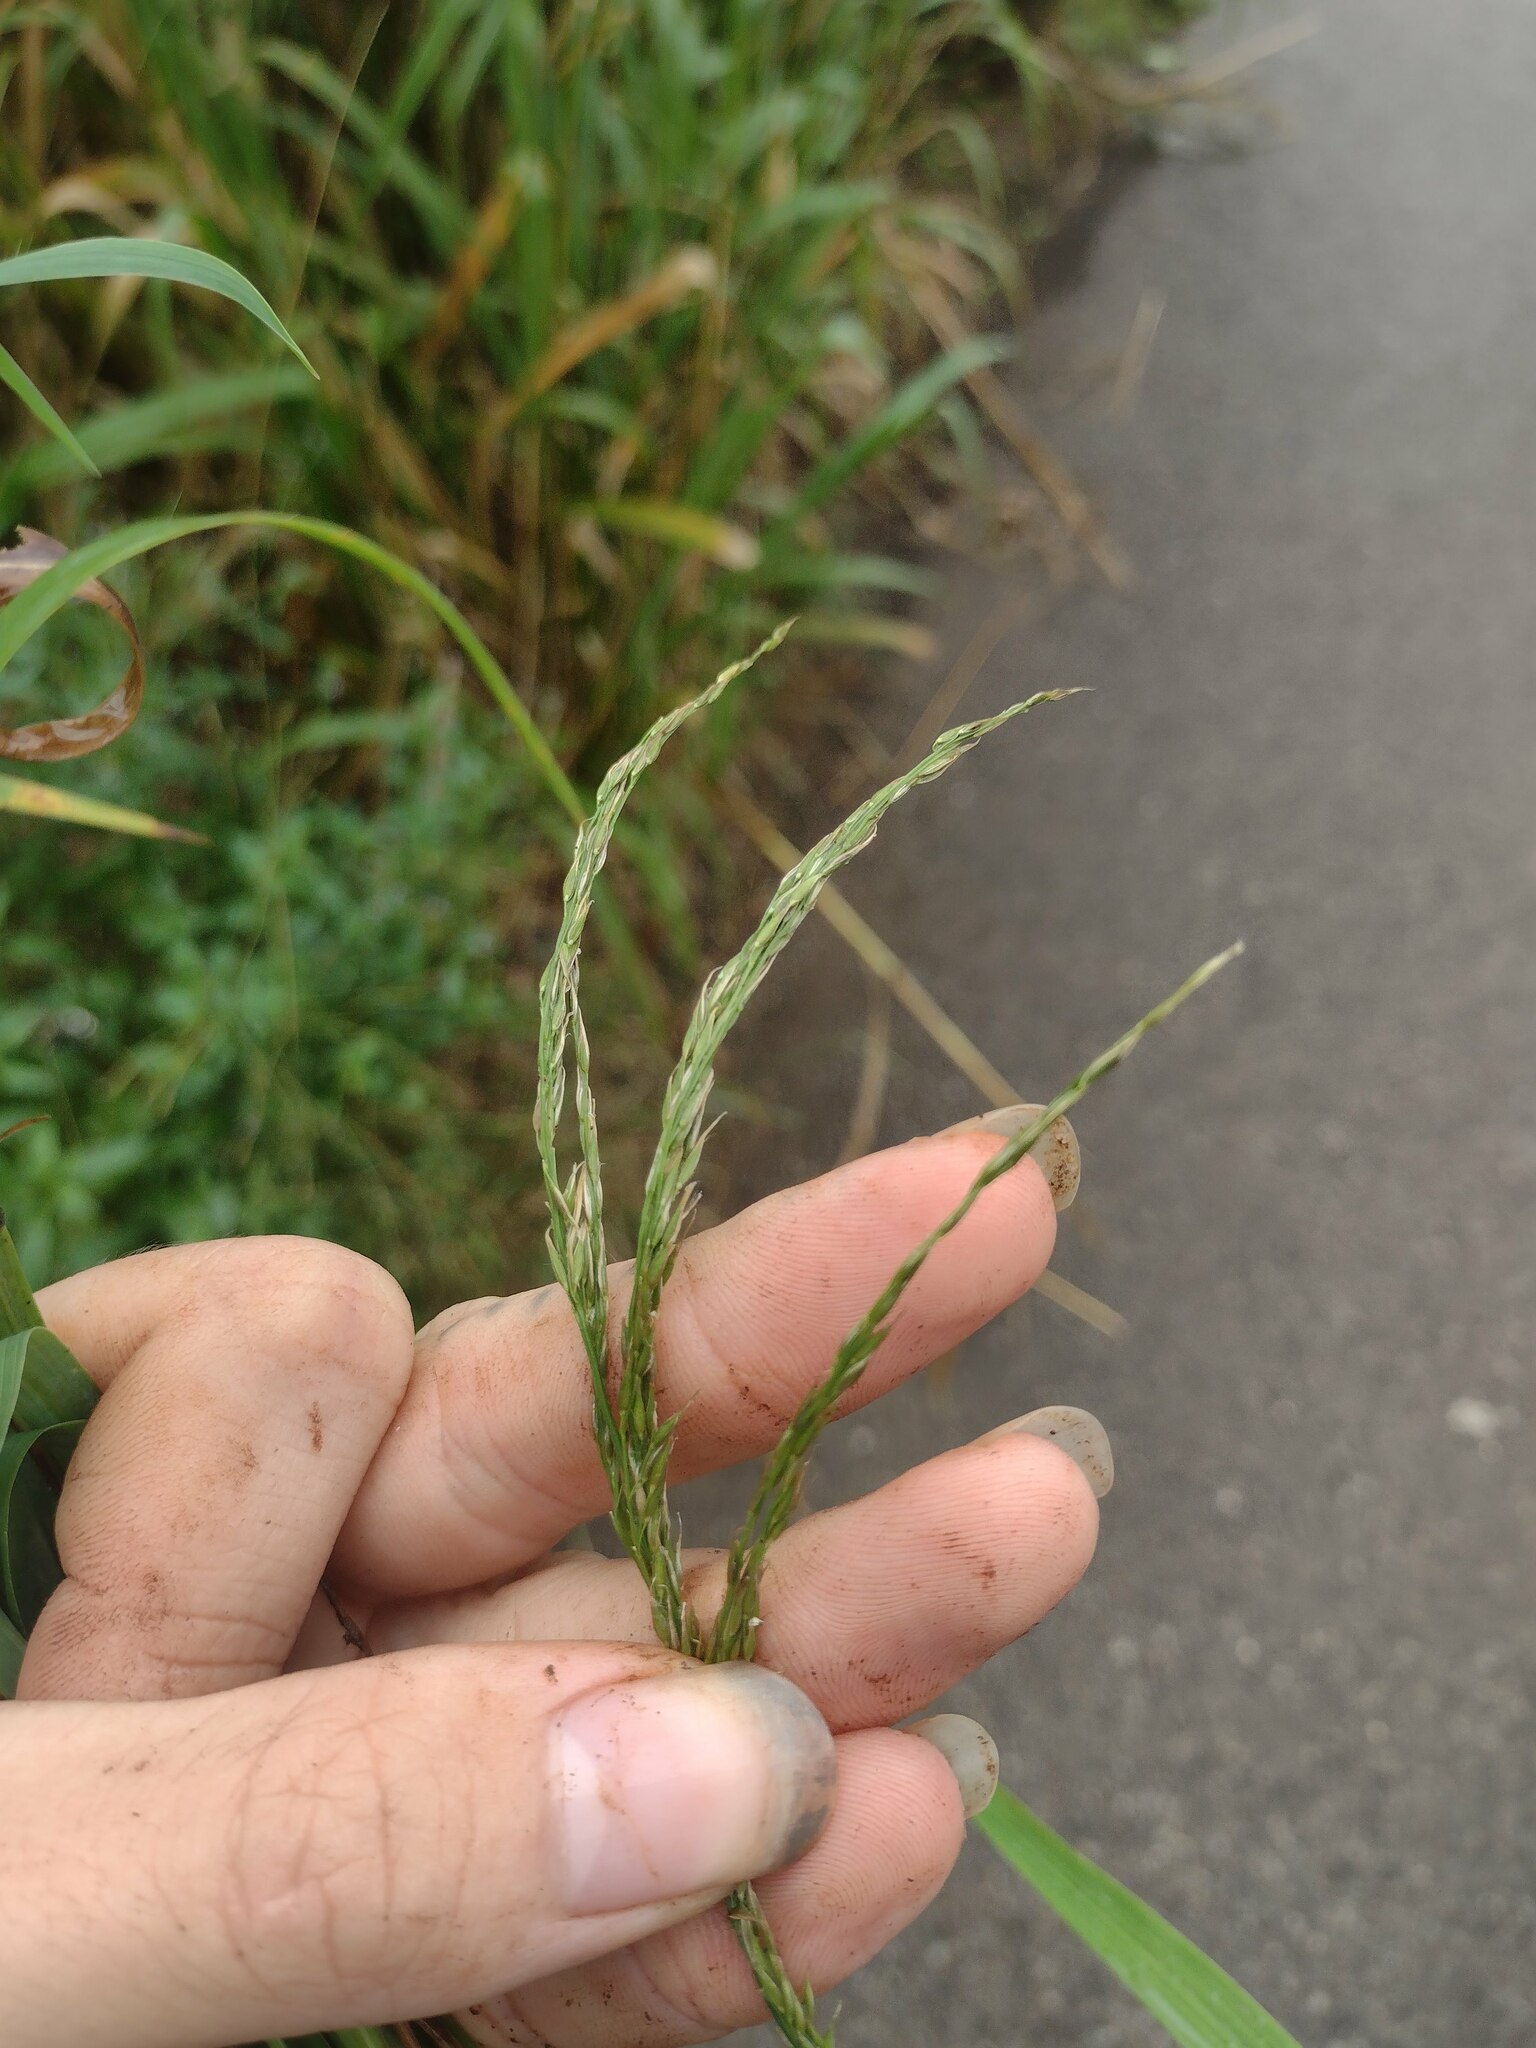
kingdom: Plantae
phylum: Tracheophyta
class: Liliopsida
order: Poales
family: Poaceae
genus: Digitaria
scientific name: Digitaria insularis
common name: Sourgrass
